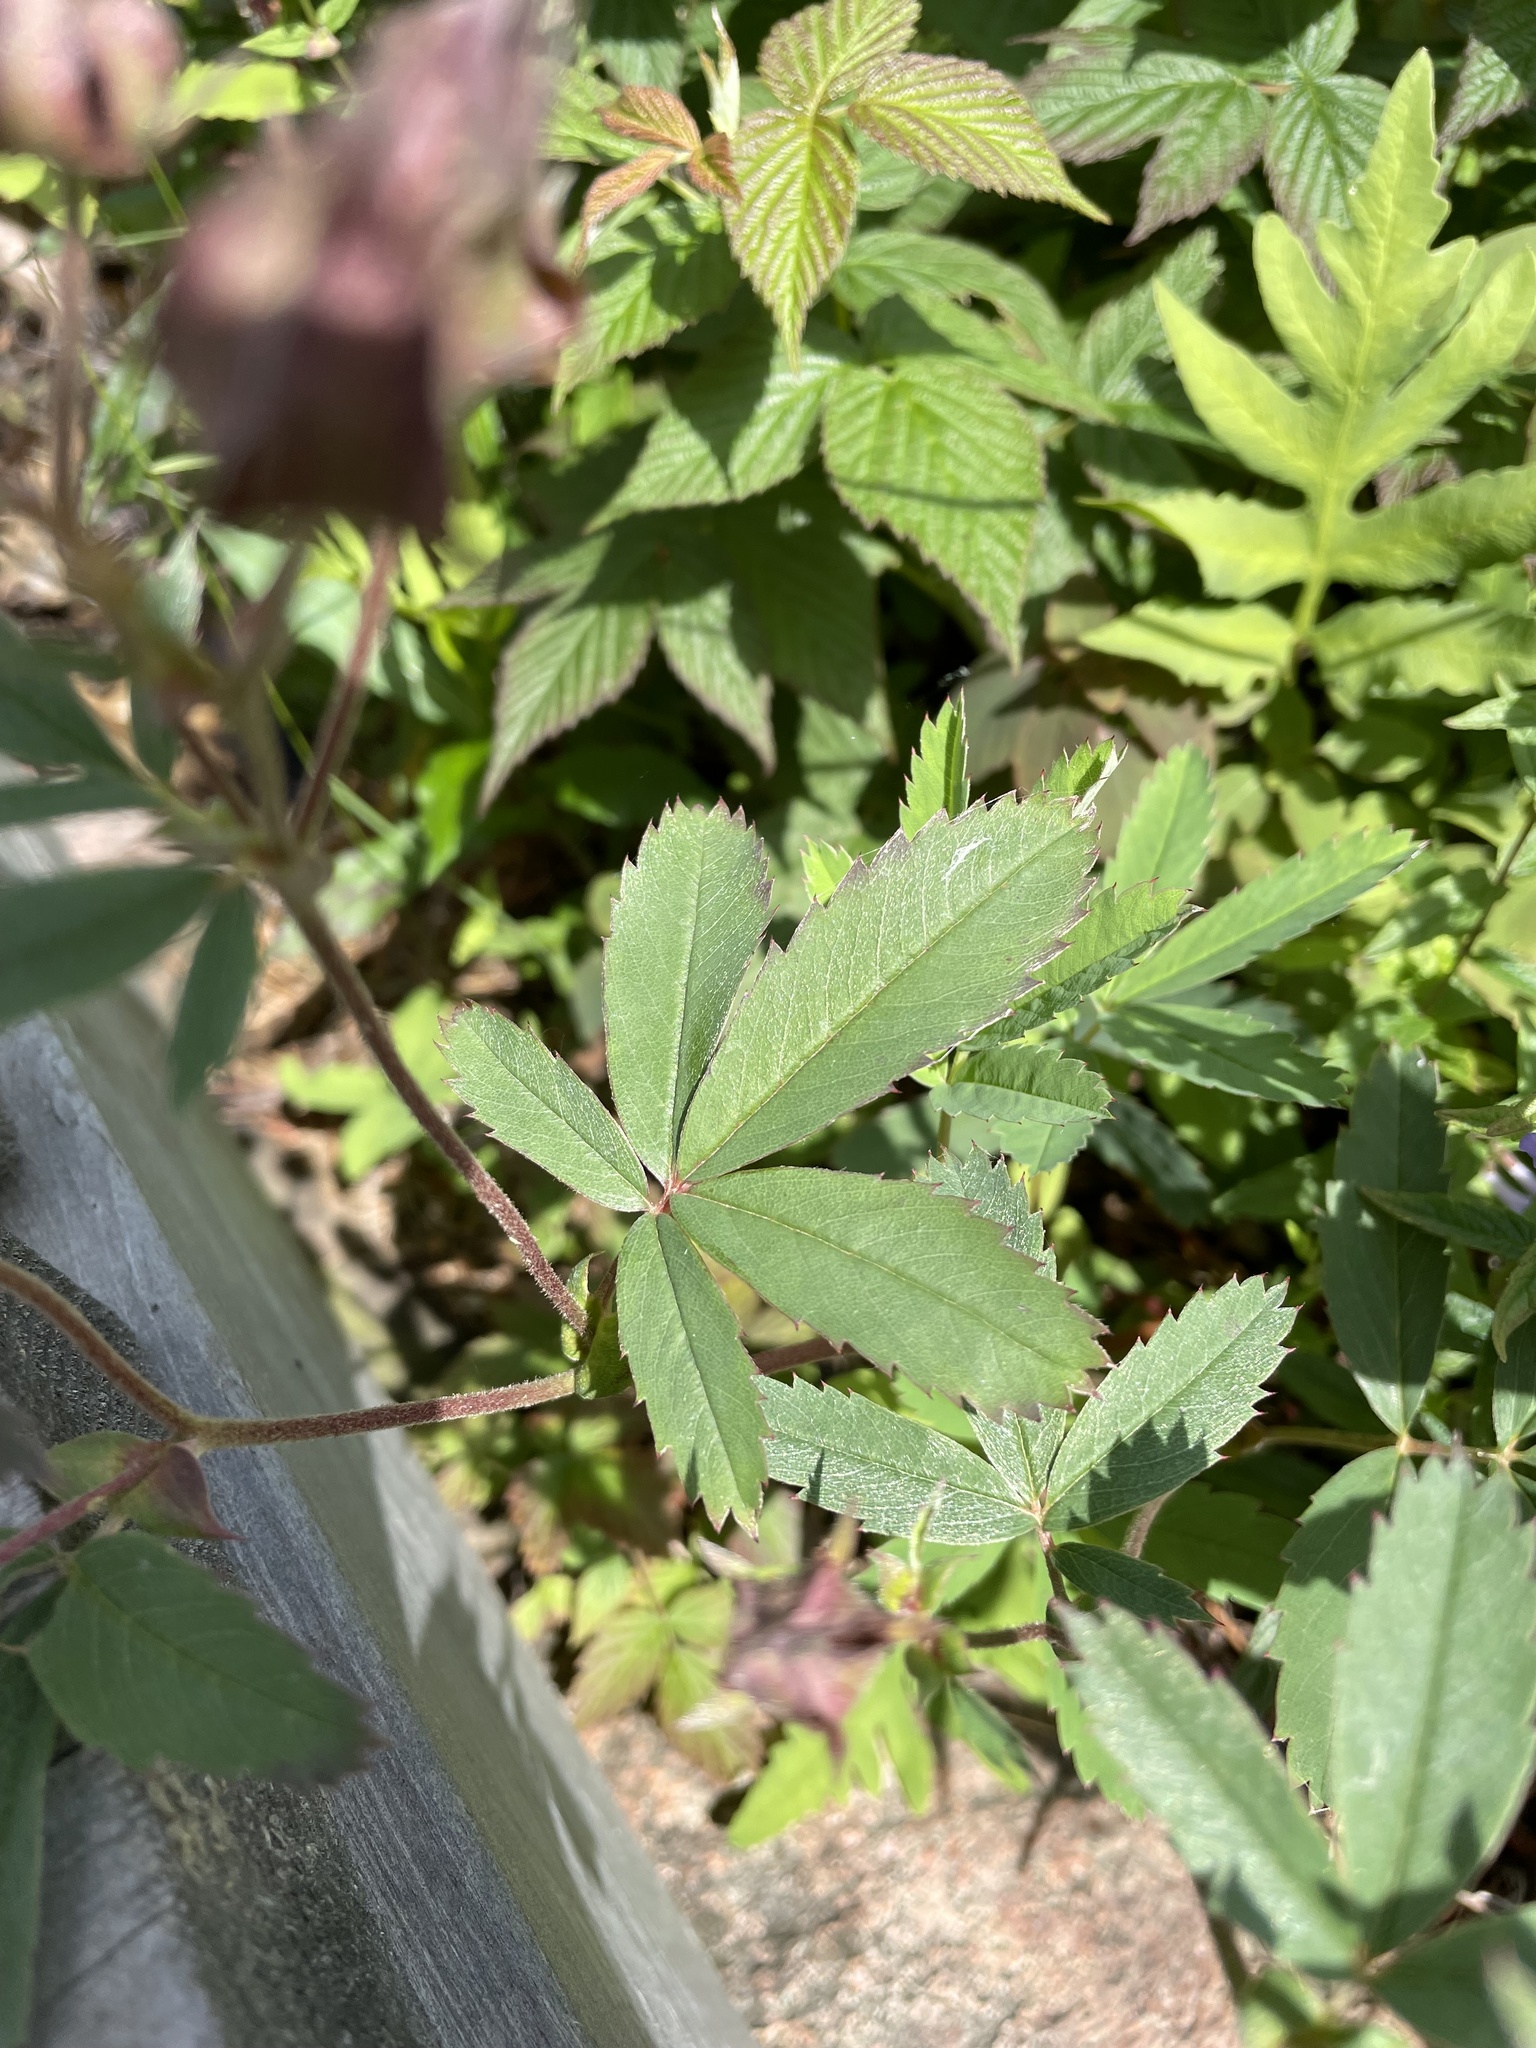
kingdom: Plantae
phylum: Tracheophyta
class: Magnoliopsida
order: Rosales
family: Rosaceae
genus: Comarum
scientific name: Comarum palustre
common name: Marsh cinquefoil
